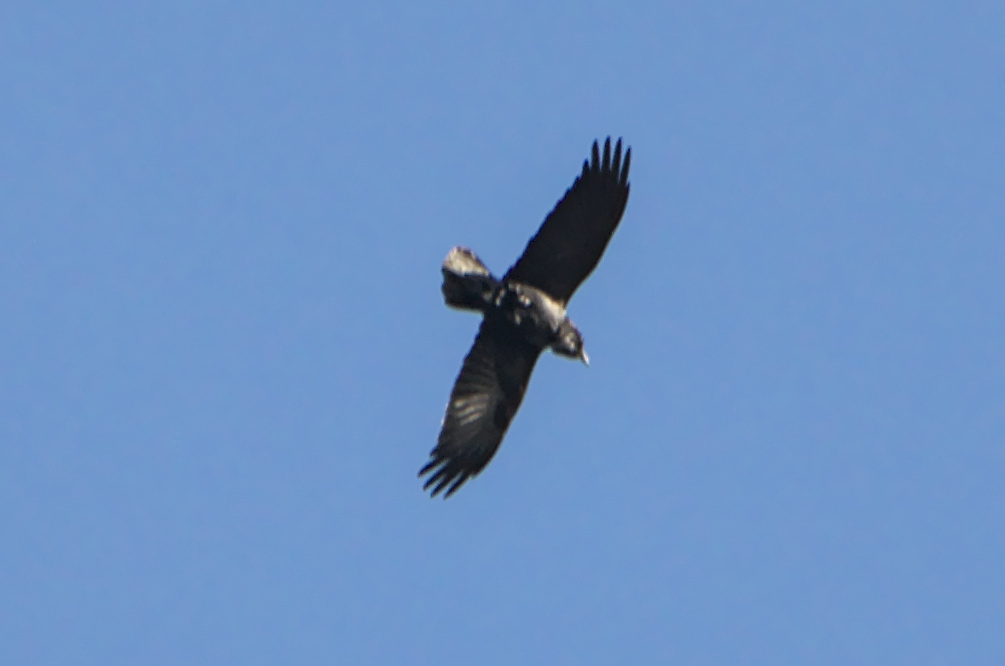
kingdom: Animalia
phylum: Chordata
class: Aves
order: Passeriformes
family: Corvidae
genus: Corvus
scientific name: Corvus corax
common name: Common raven
